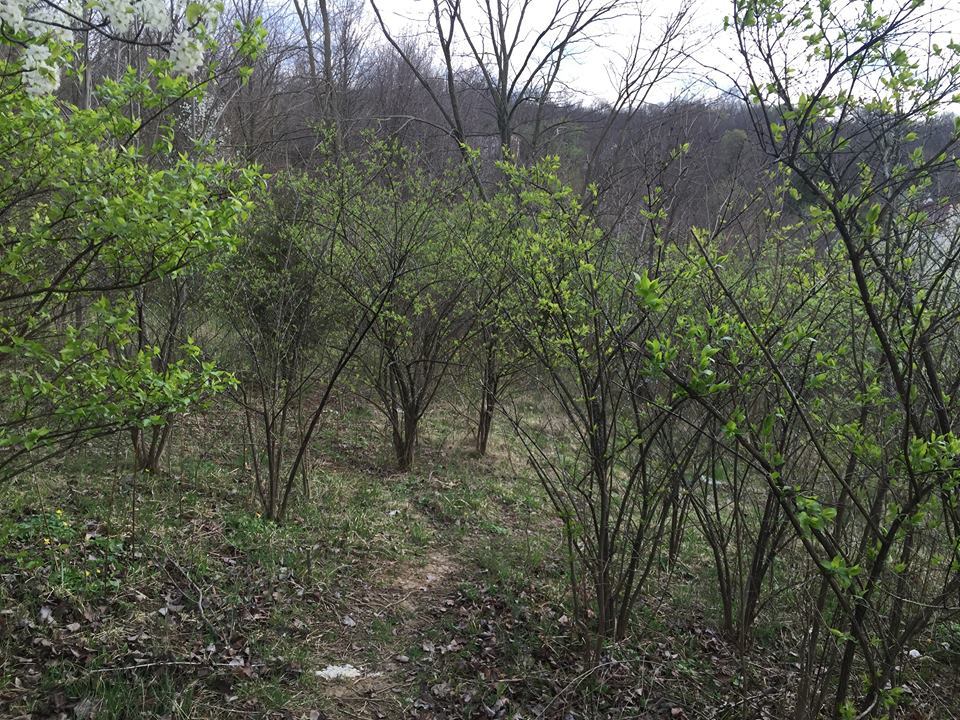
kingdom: Plantae
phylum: Tracheophyta
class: Magnoliopsida
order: Dipsacales
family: Caprifoliaceae
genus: Lonicera
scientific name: Lonicera maackii
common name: Amur honeysuckle
